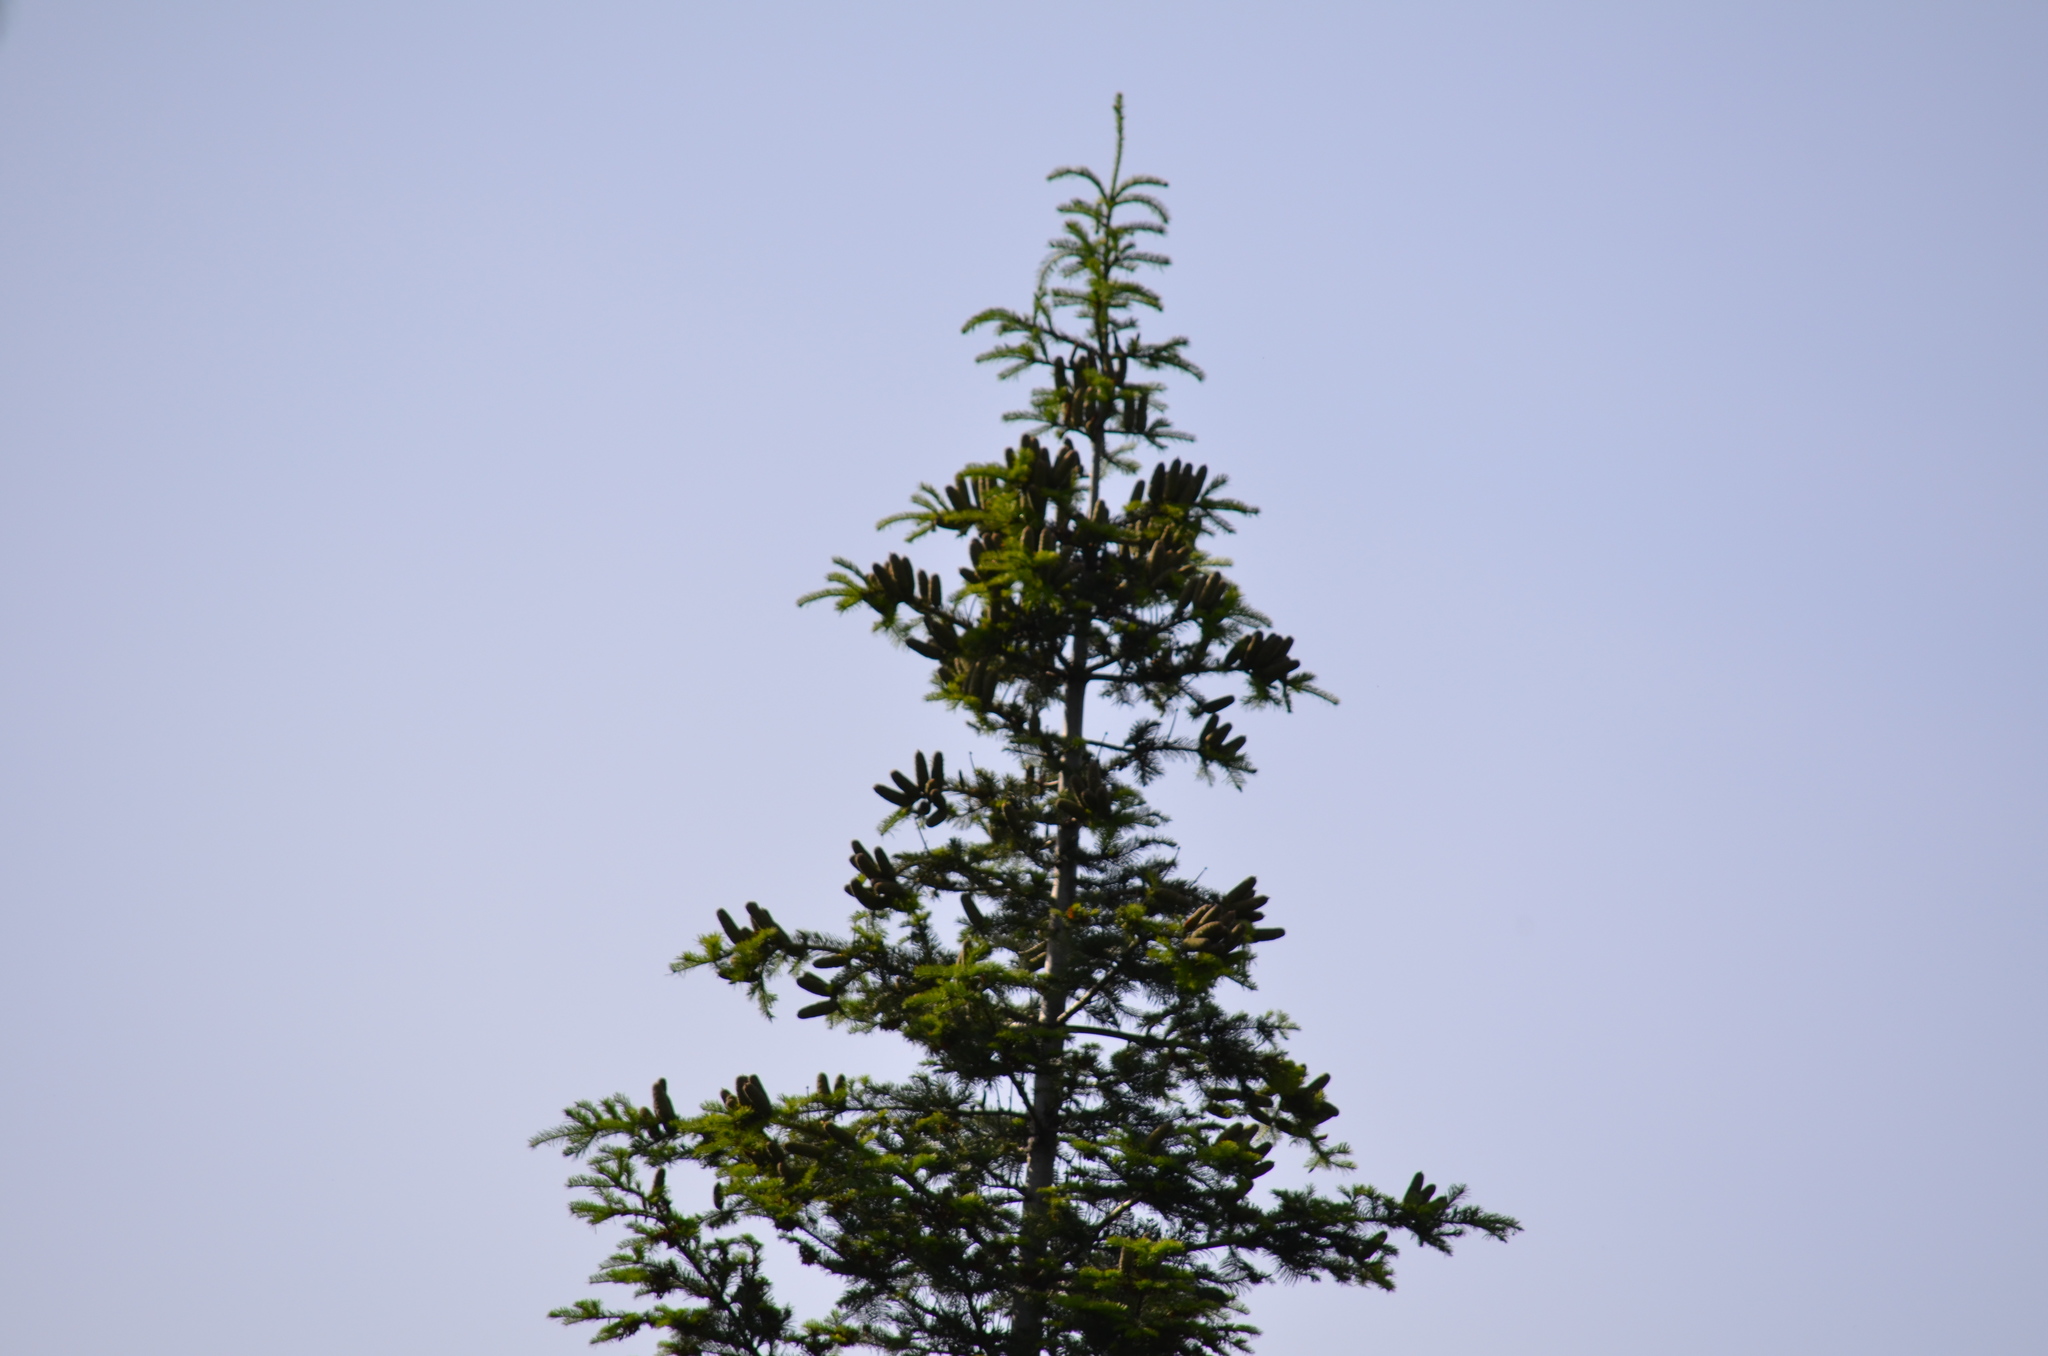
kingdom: Plantae
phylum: Tracheophyta
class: Pinopsida
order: Pinales
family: Pinaceae
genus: Abies
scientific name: Abies grandis
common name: Giant fir
